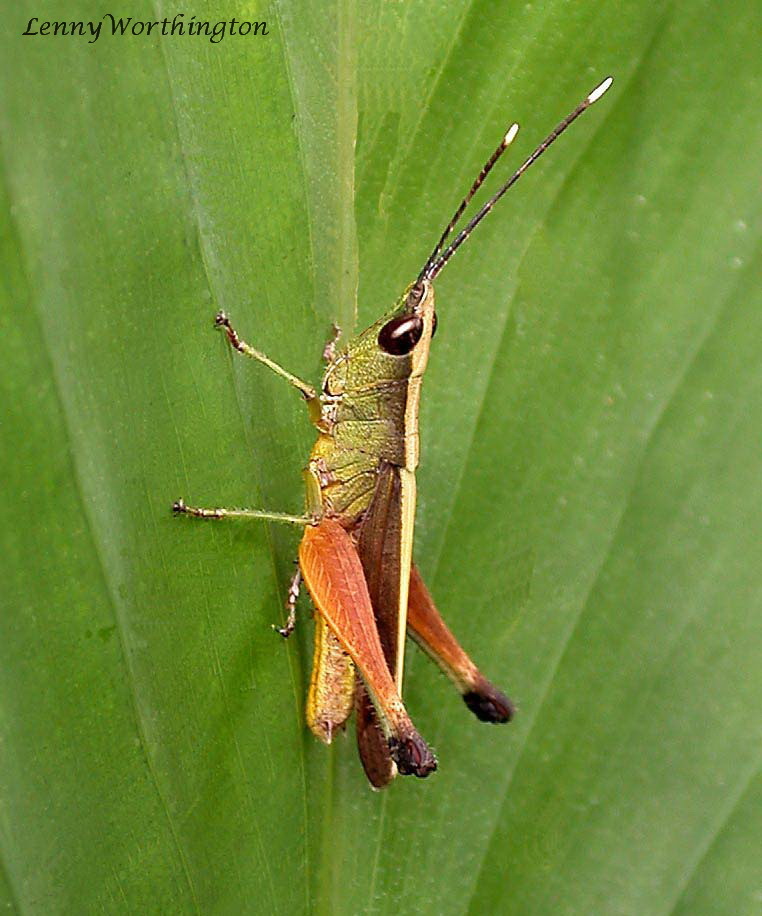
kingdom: Animalia
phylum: Arthropoda
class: Insecta
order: Orthoptera
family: Acrididae
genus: Phlaeoba
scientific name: Phlaeoba antennata
